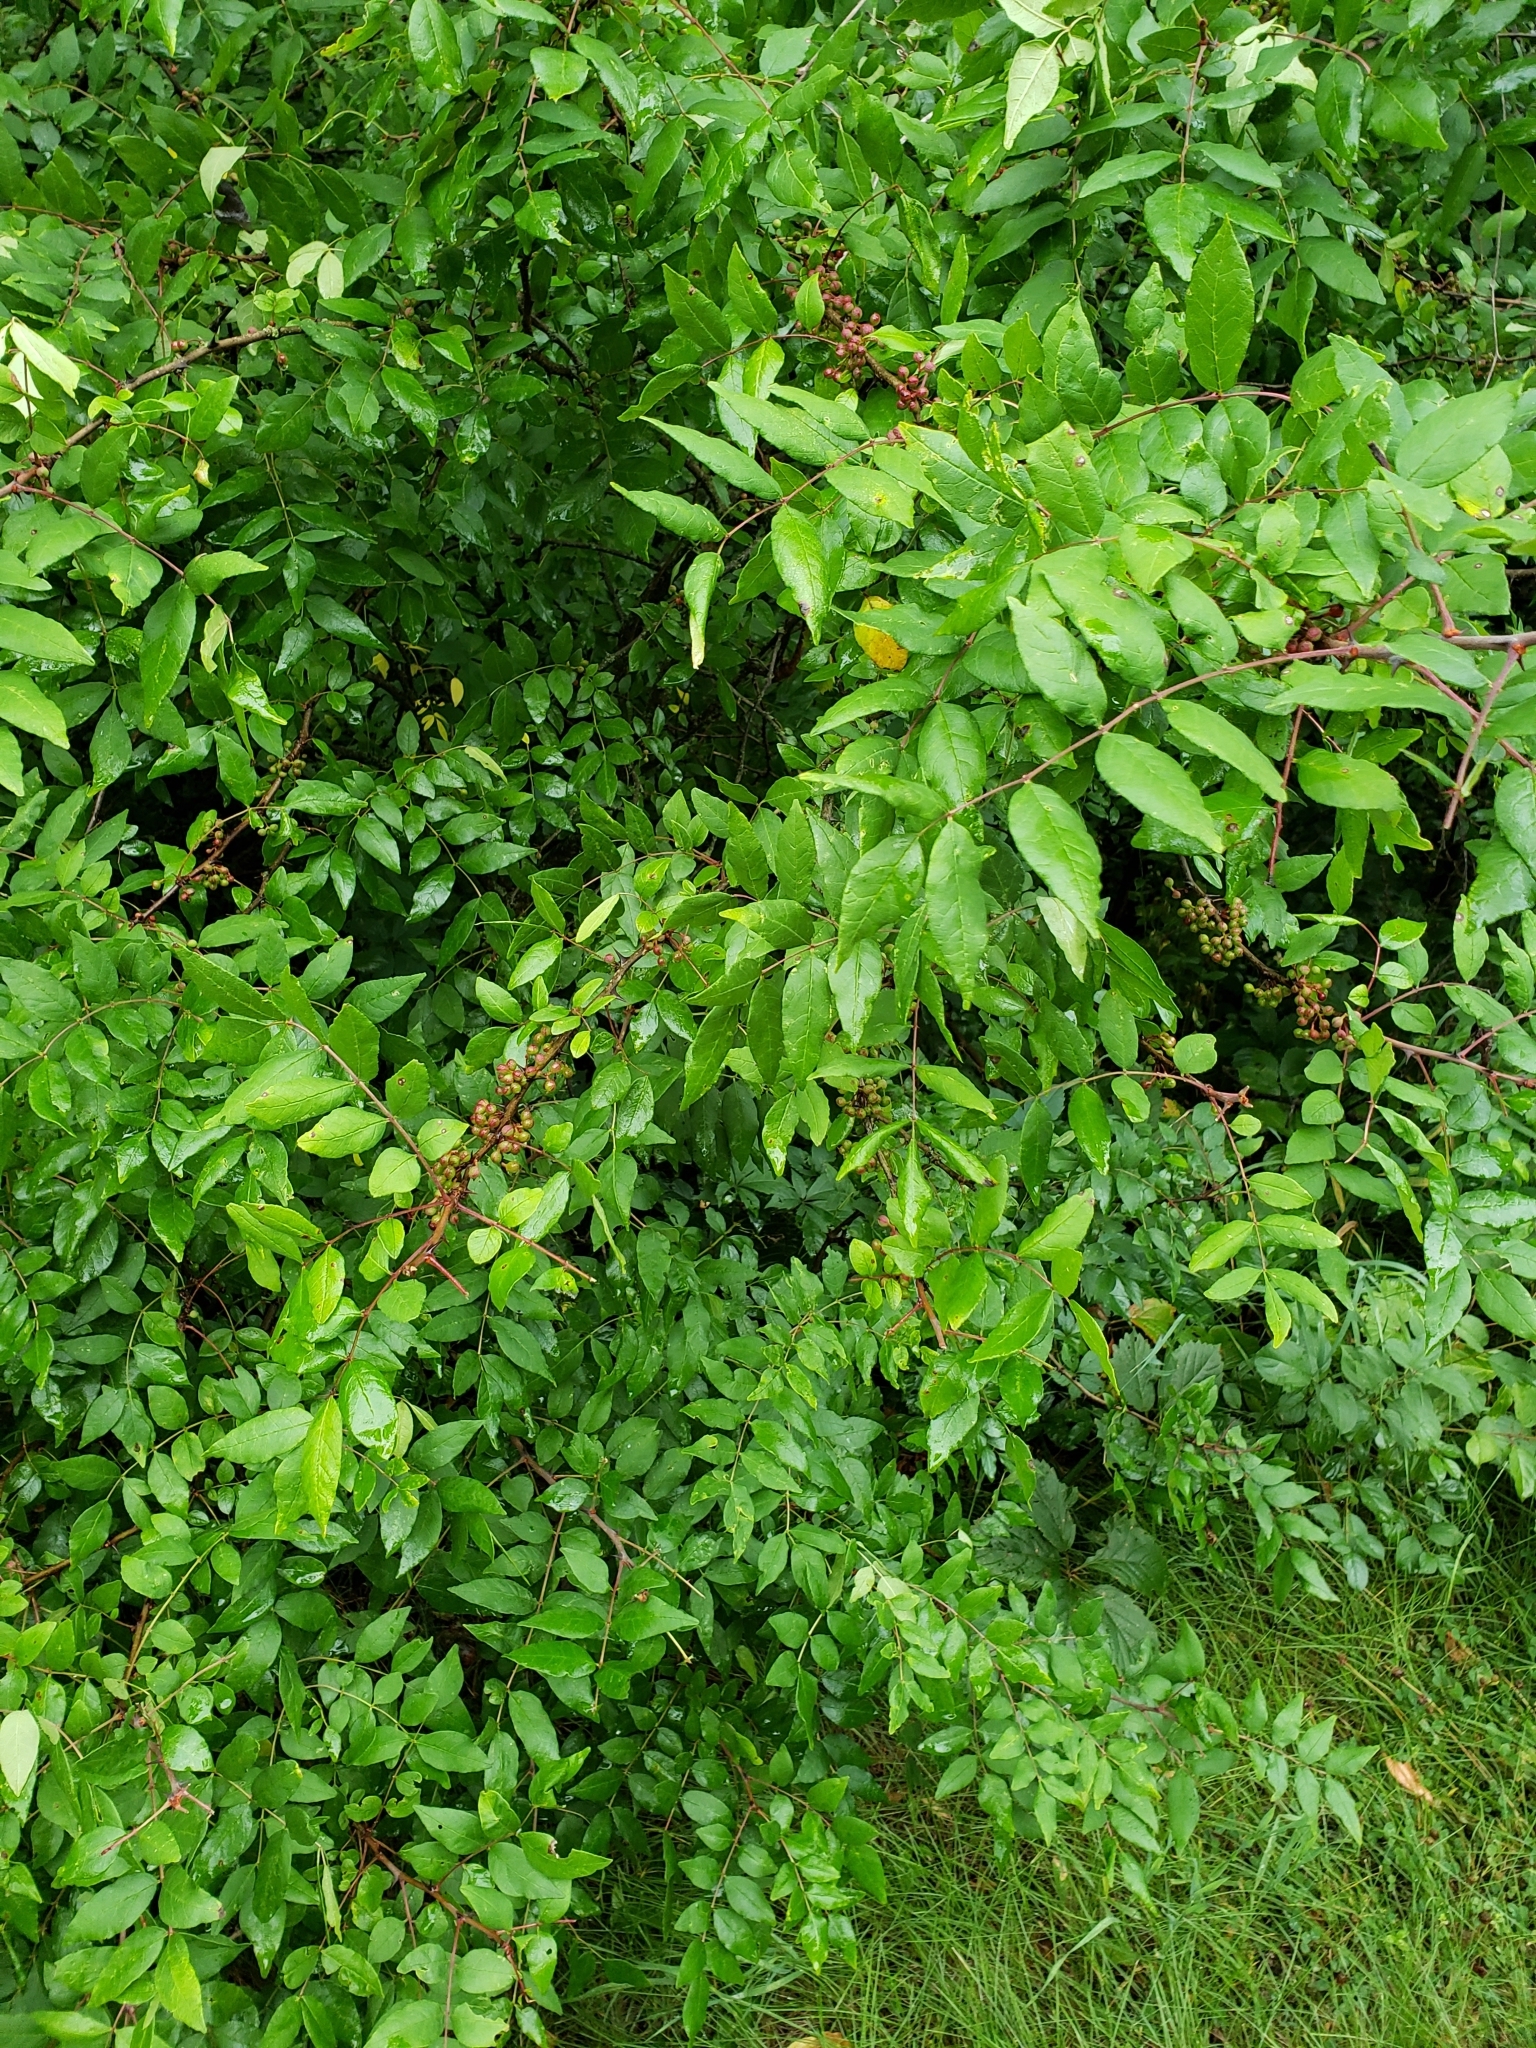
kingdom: Plantae
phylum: Tracheophyta
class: Magnoliopsida
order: Sapindales
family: Rutaceae
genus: Zanthoxylum
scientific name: Zanthoxylum americanum
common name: Northern prickly-ash
